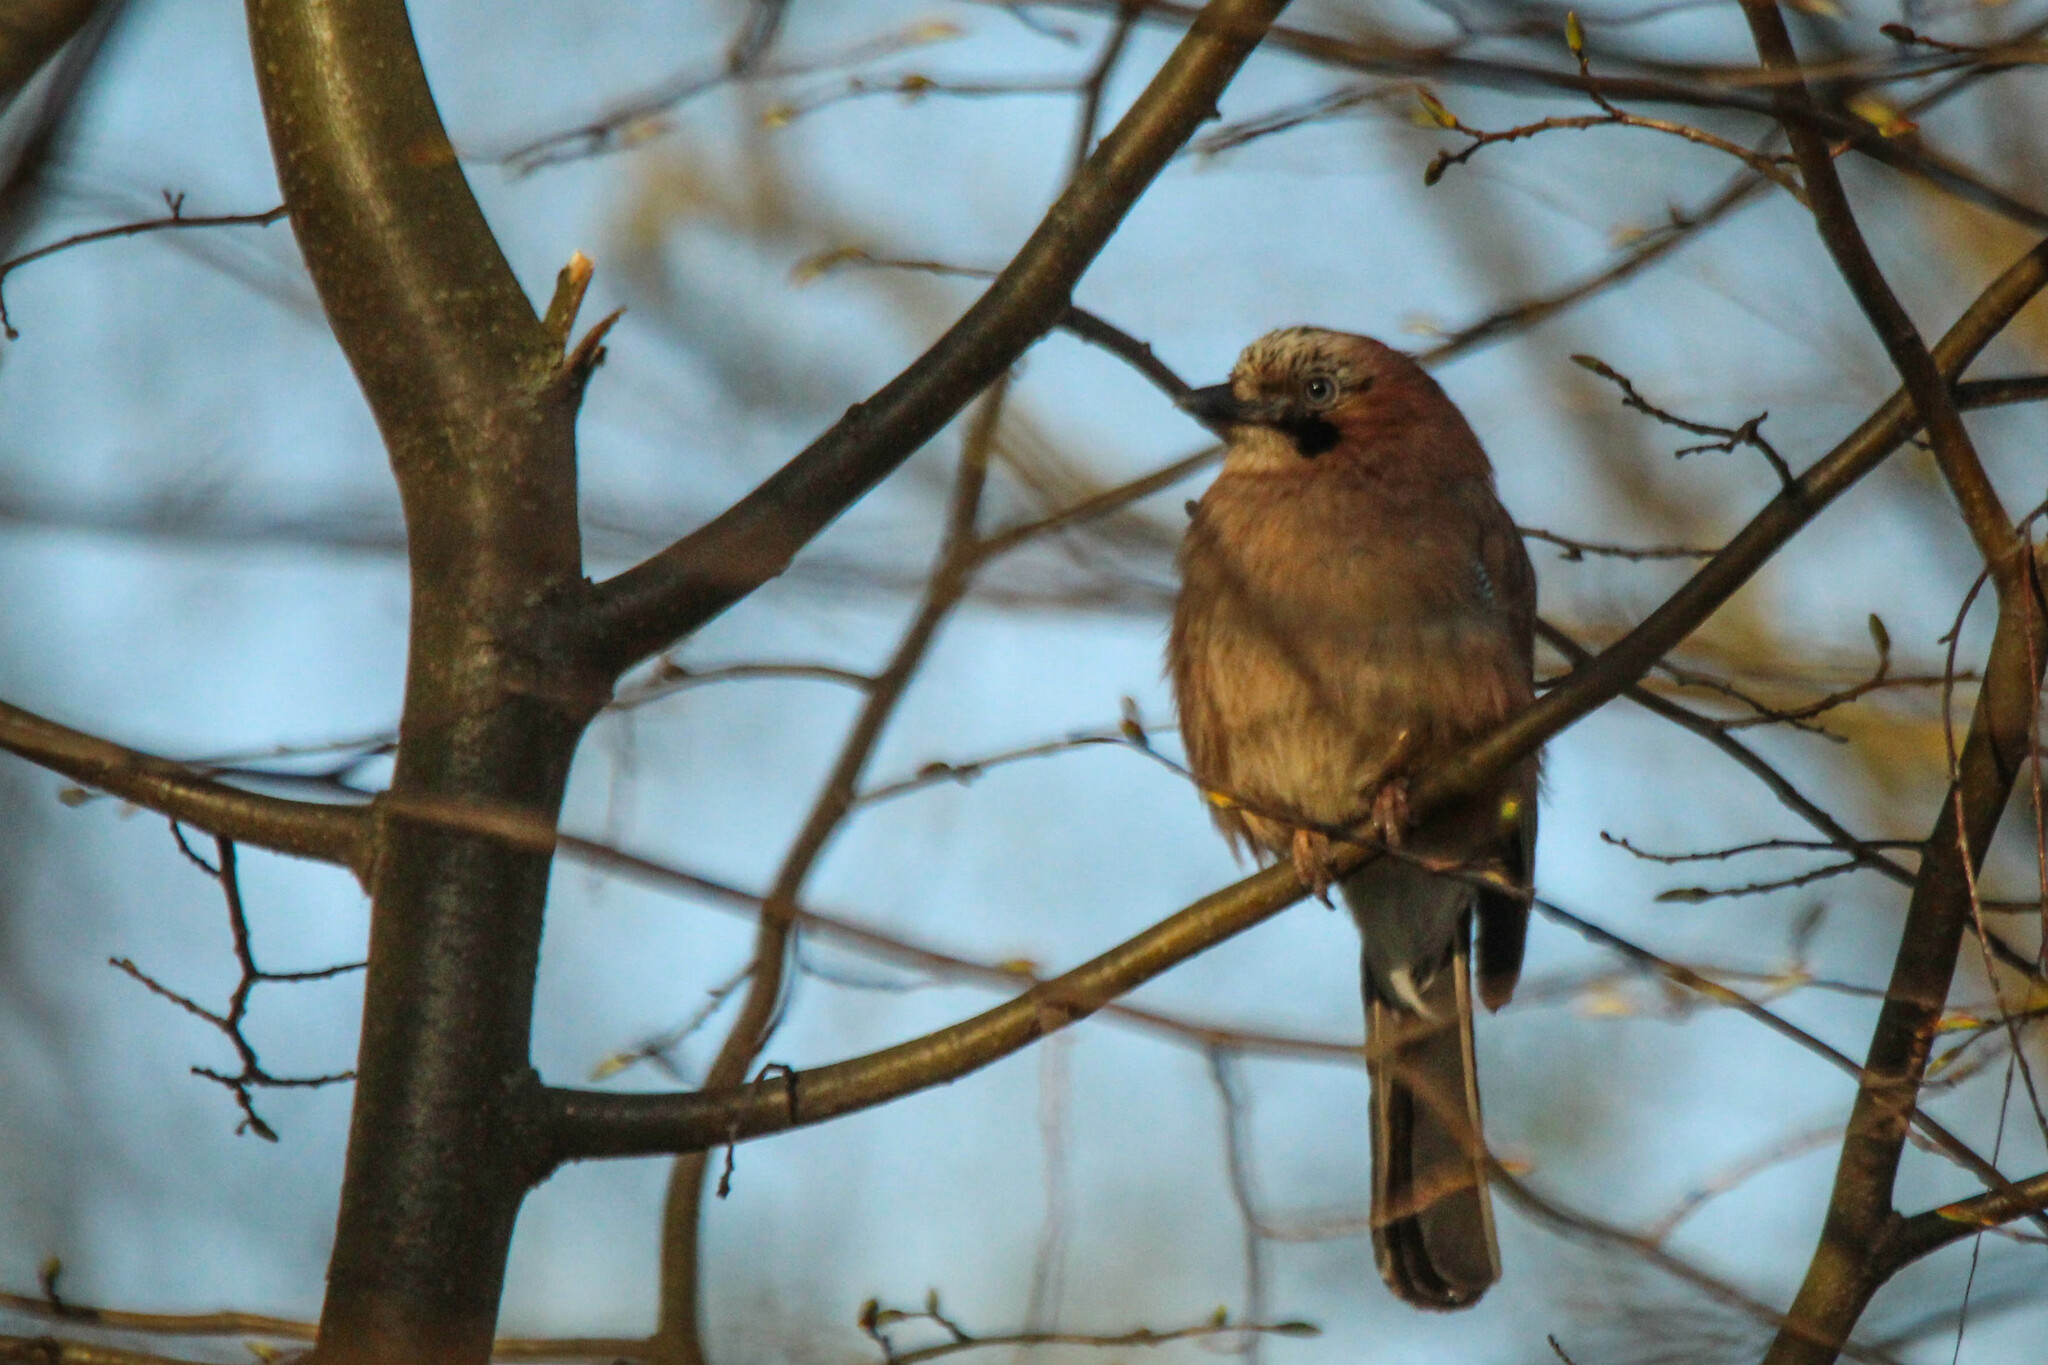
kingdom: Animalia
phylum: Chordata
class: Aves
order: Passeriformes
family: Corvidae
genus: Garrulus
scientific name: Garrulus glandarius
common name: Eurasian jay
